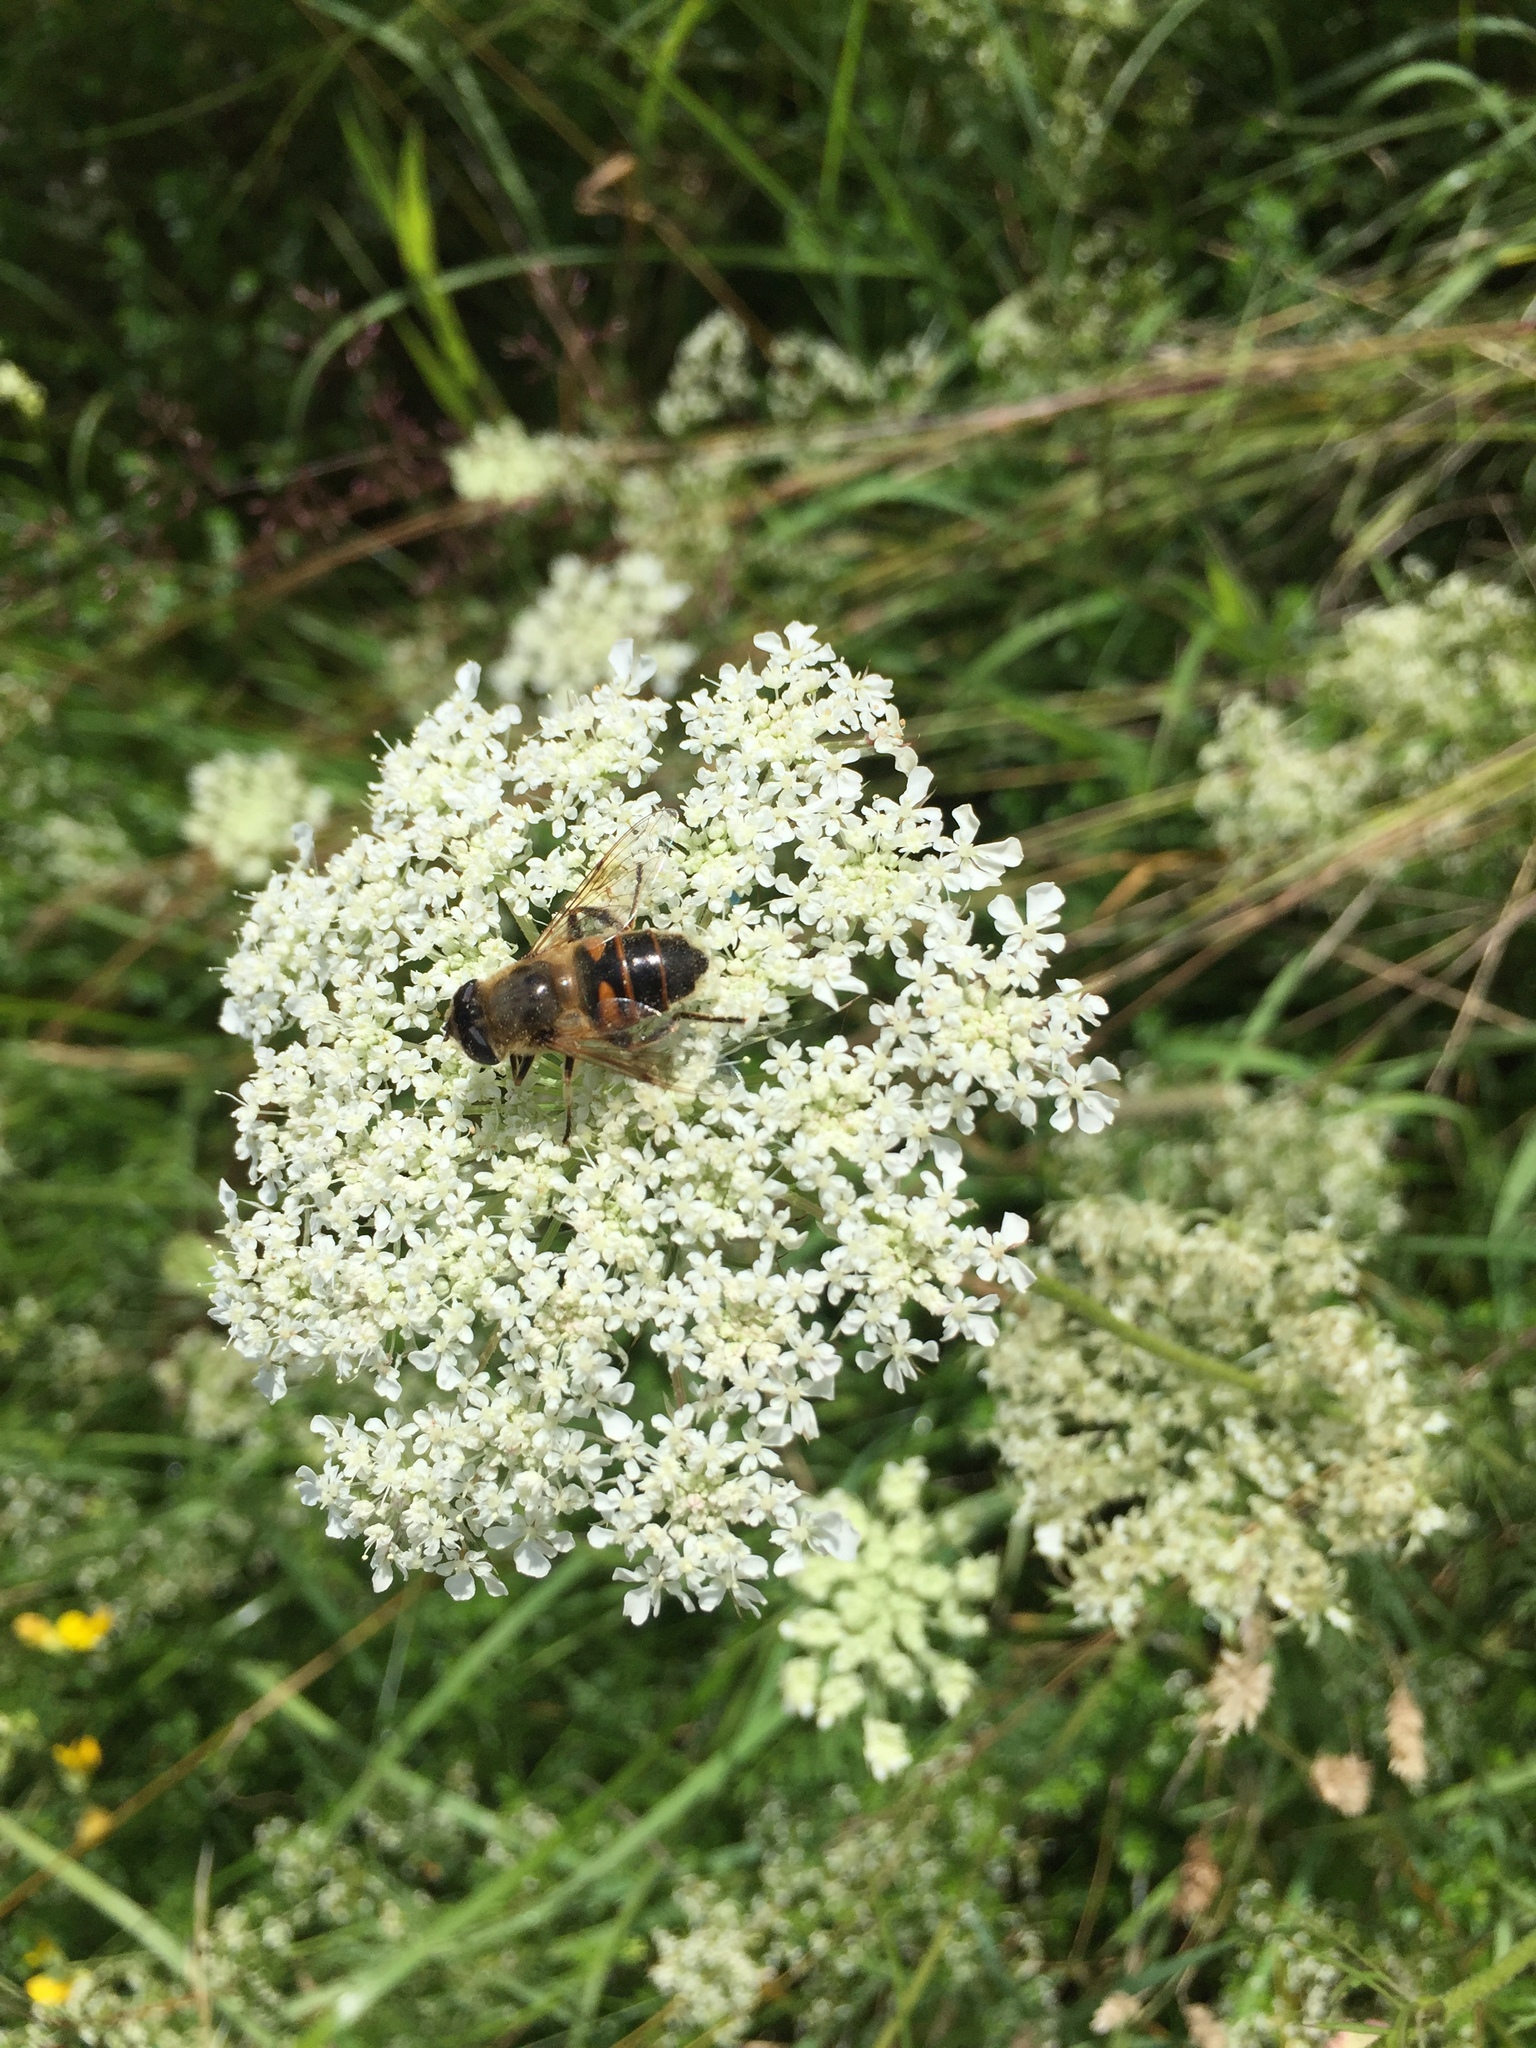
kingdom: Animalia
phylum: Arthropoda
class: Insecta
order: Diptera
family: Syrphidae
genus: Eristalis
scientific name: Eristalis tenax
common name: Drone fly
